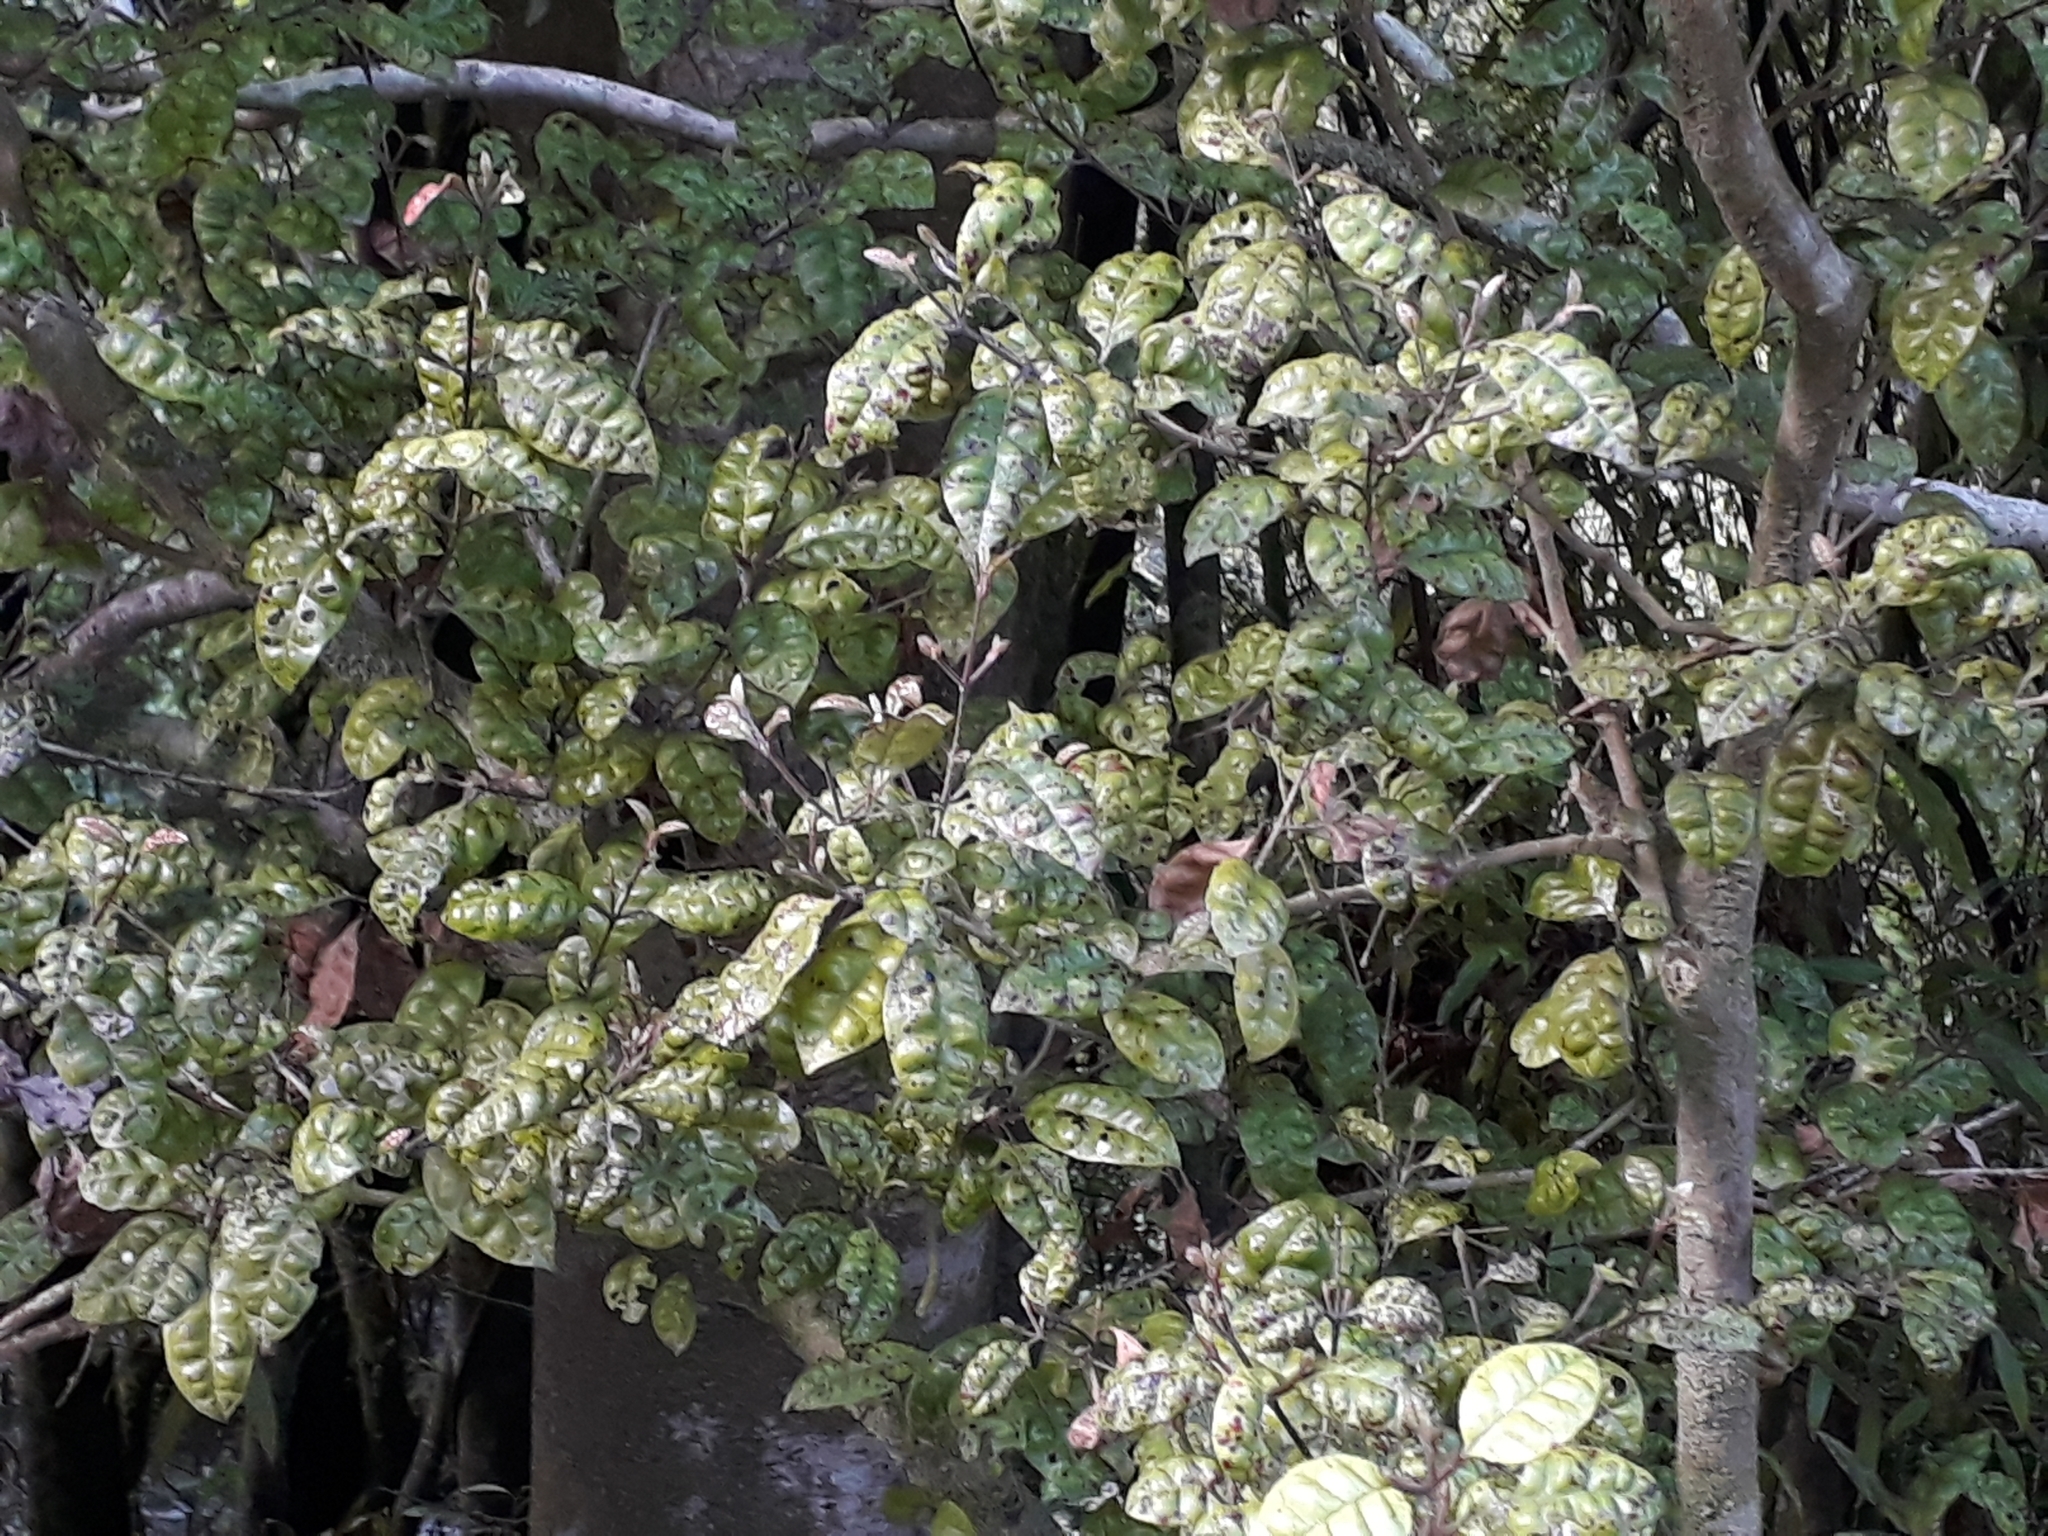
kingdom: Plantae
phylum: Tracheophyta
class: Magnoliopsida
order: Myrtales
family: Myrtaceae
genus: Lophomyrtus
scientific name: Lophomyrtus bullata
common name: Rama rama
